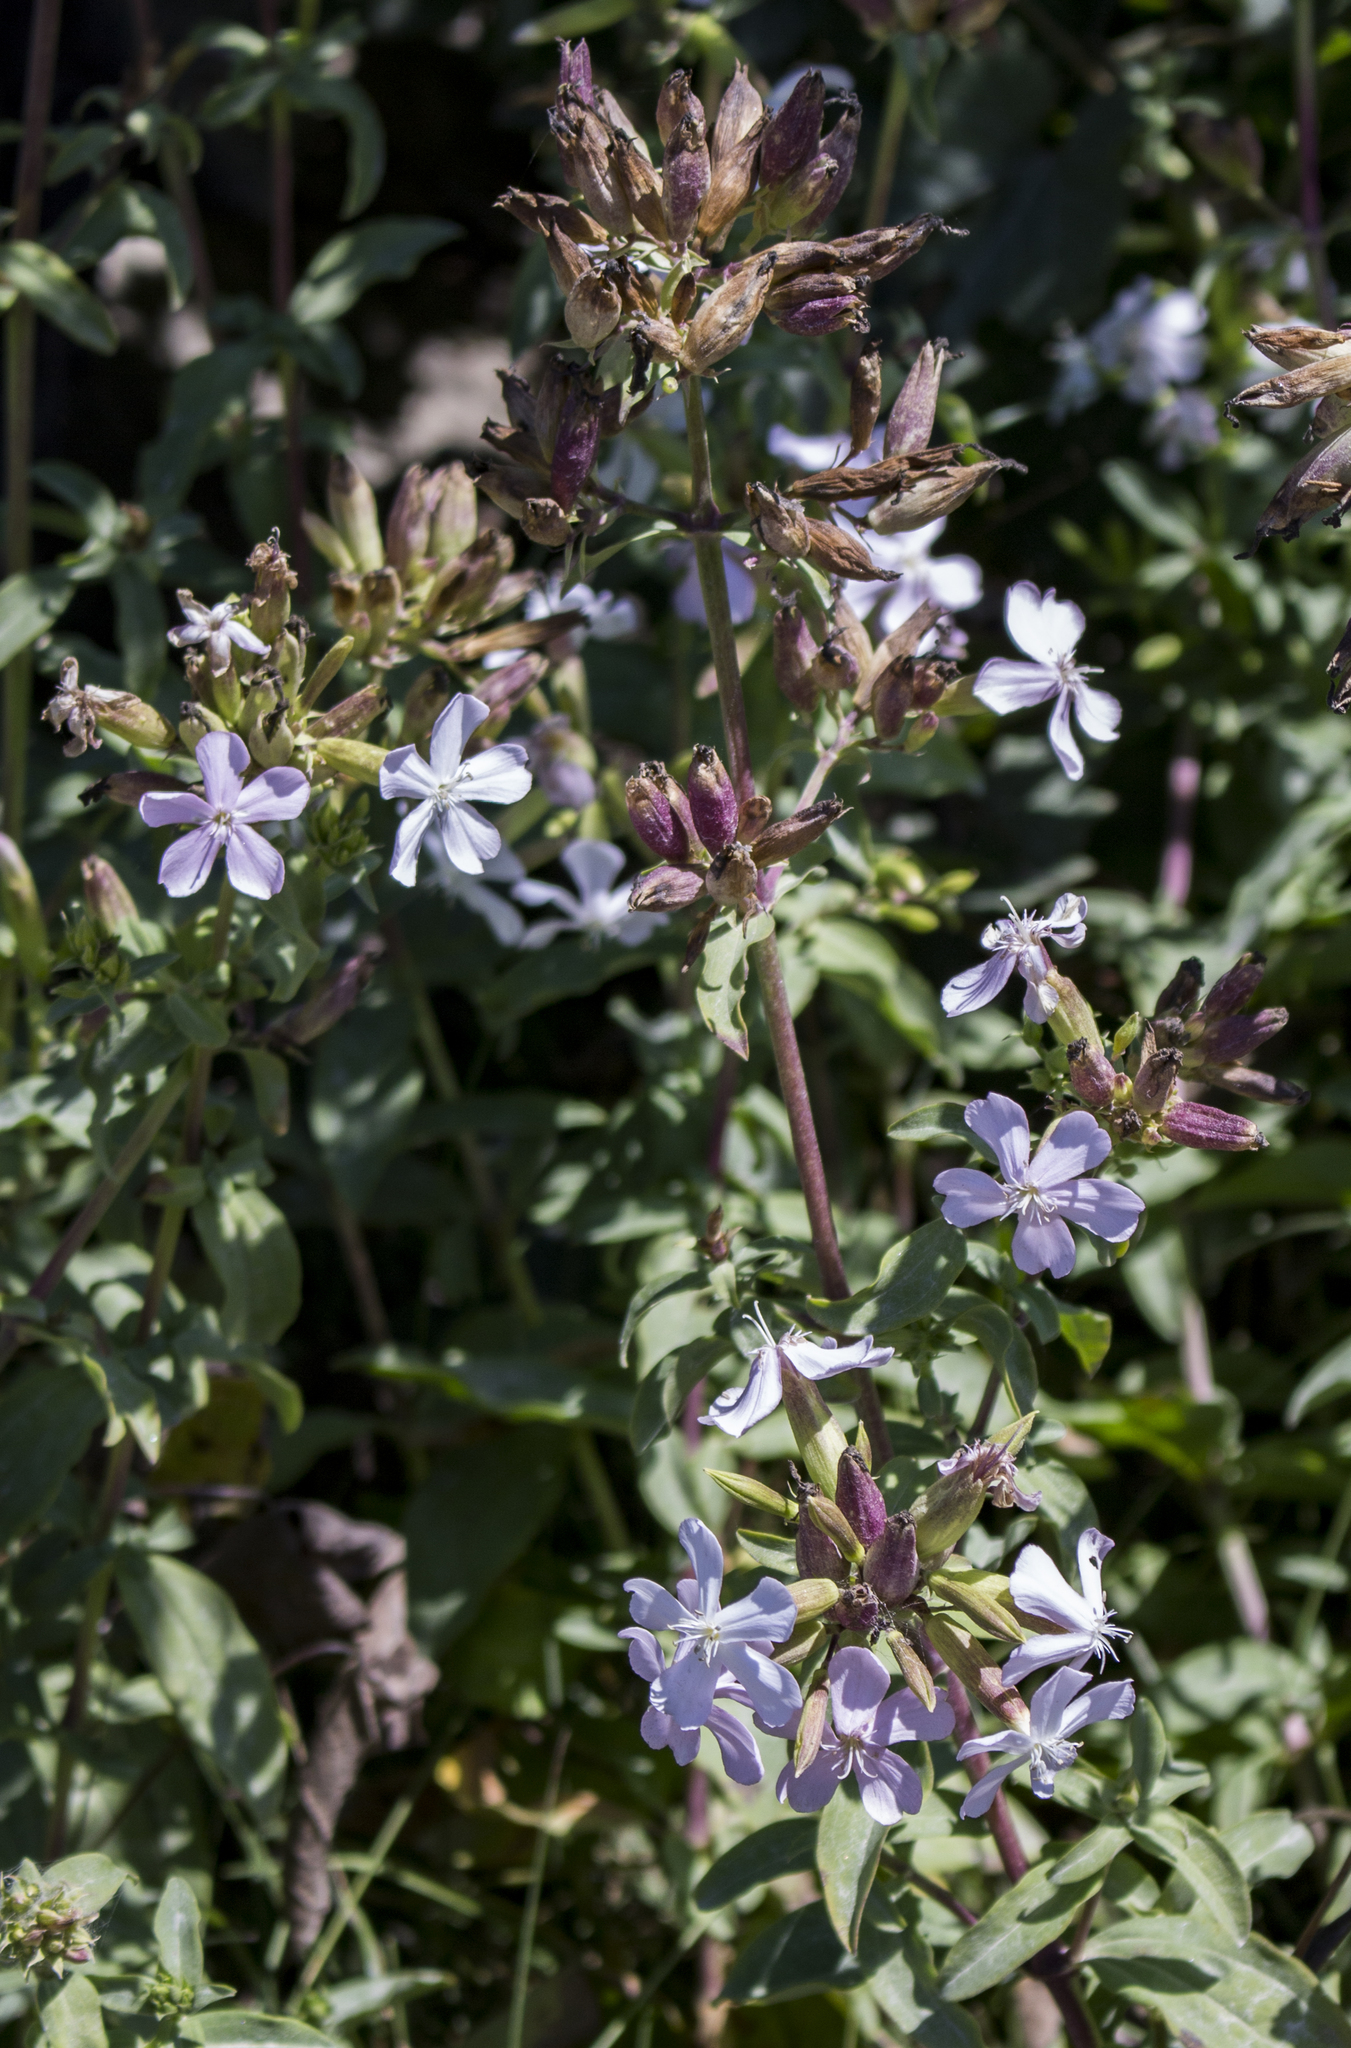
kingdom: Plantae
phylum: Tracheophyta
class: Magnoliopsida
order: Caryophyllales
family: Caryophyllaceae
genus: Saponaria
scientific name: Saponaria officinalis
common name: Soapwort
